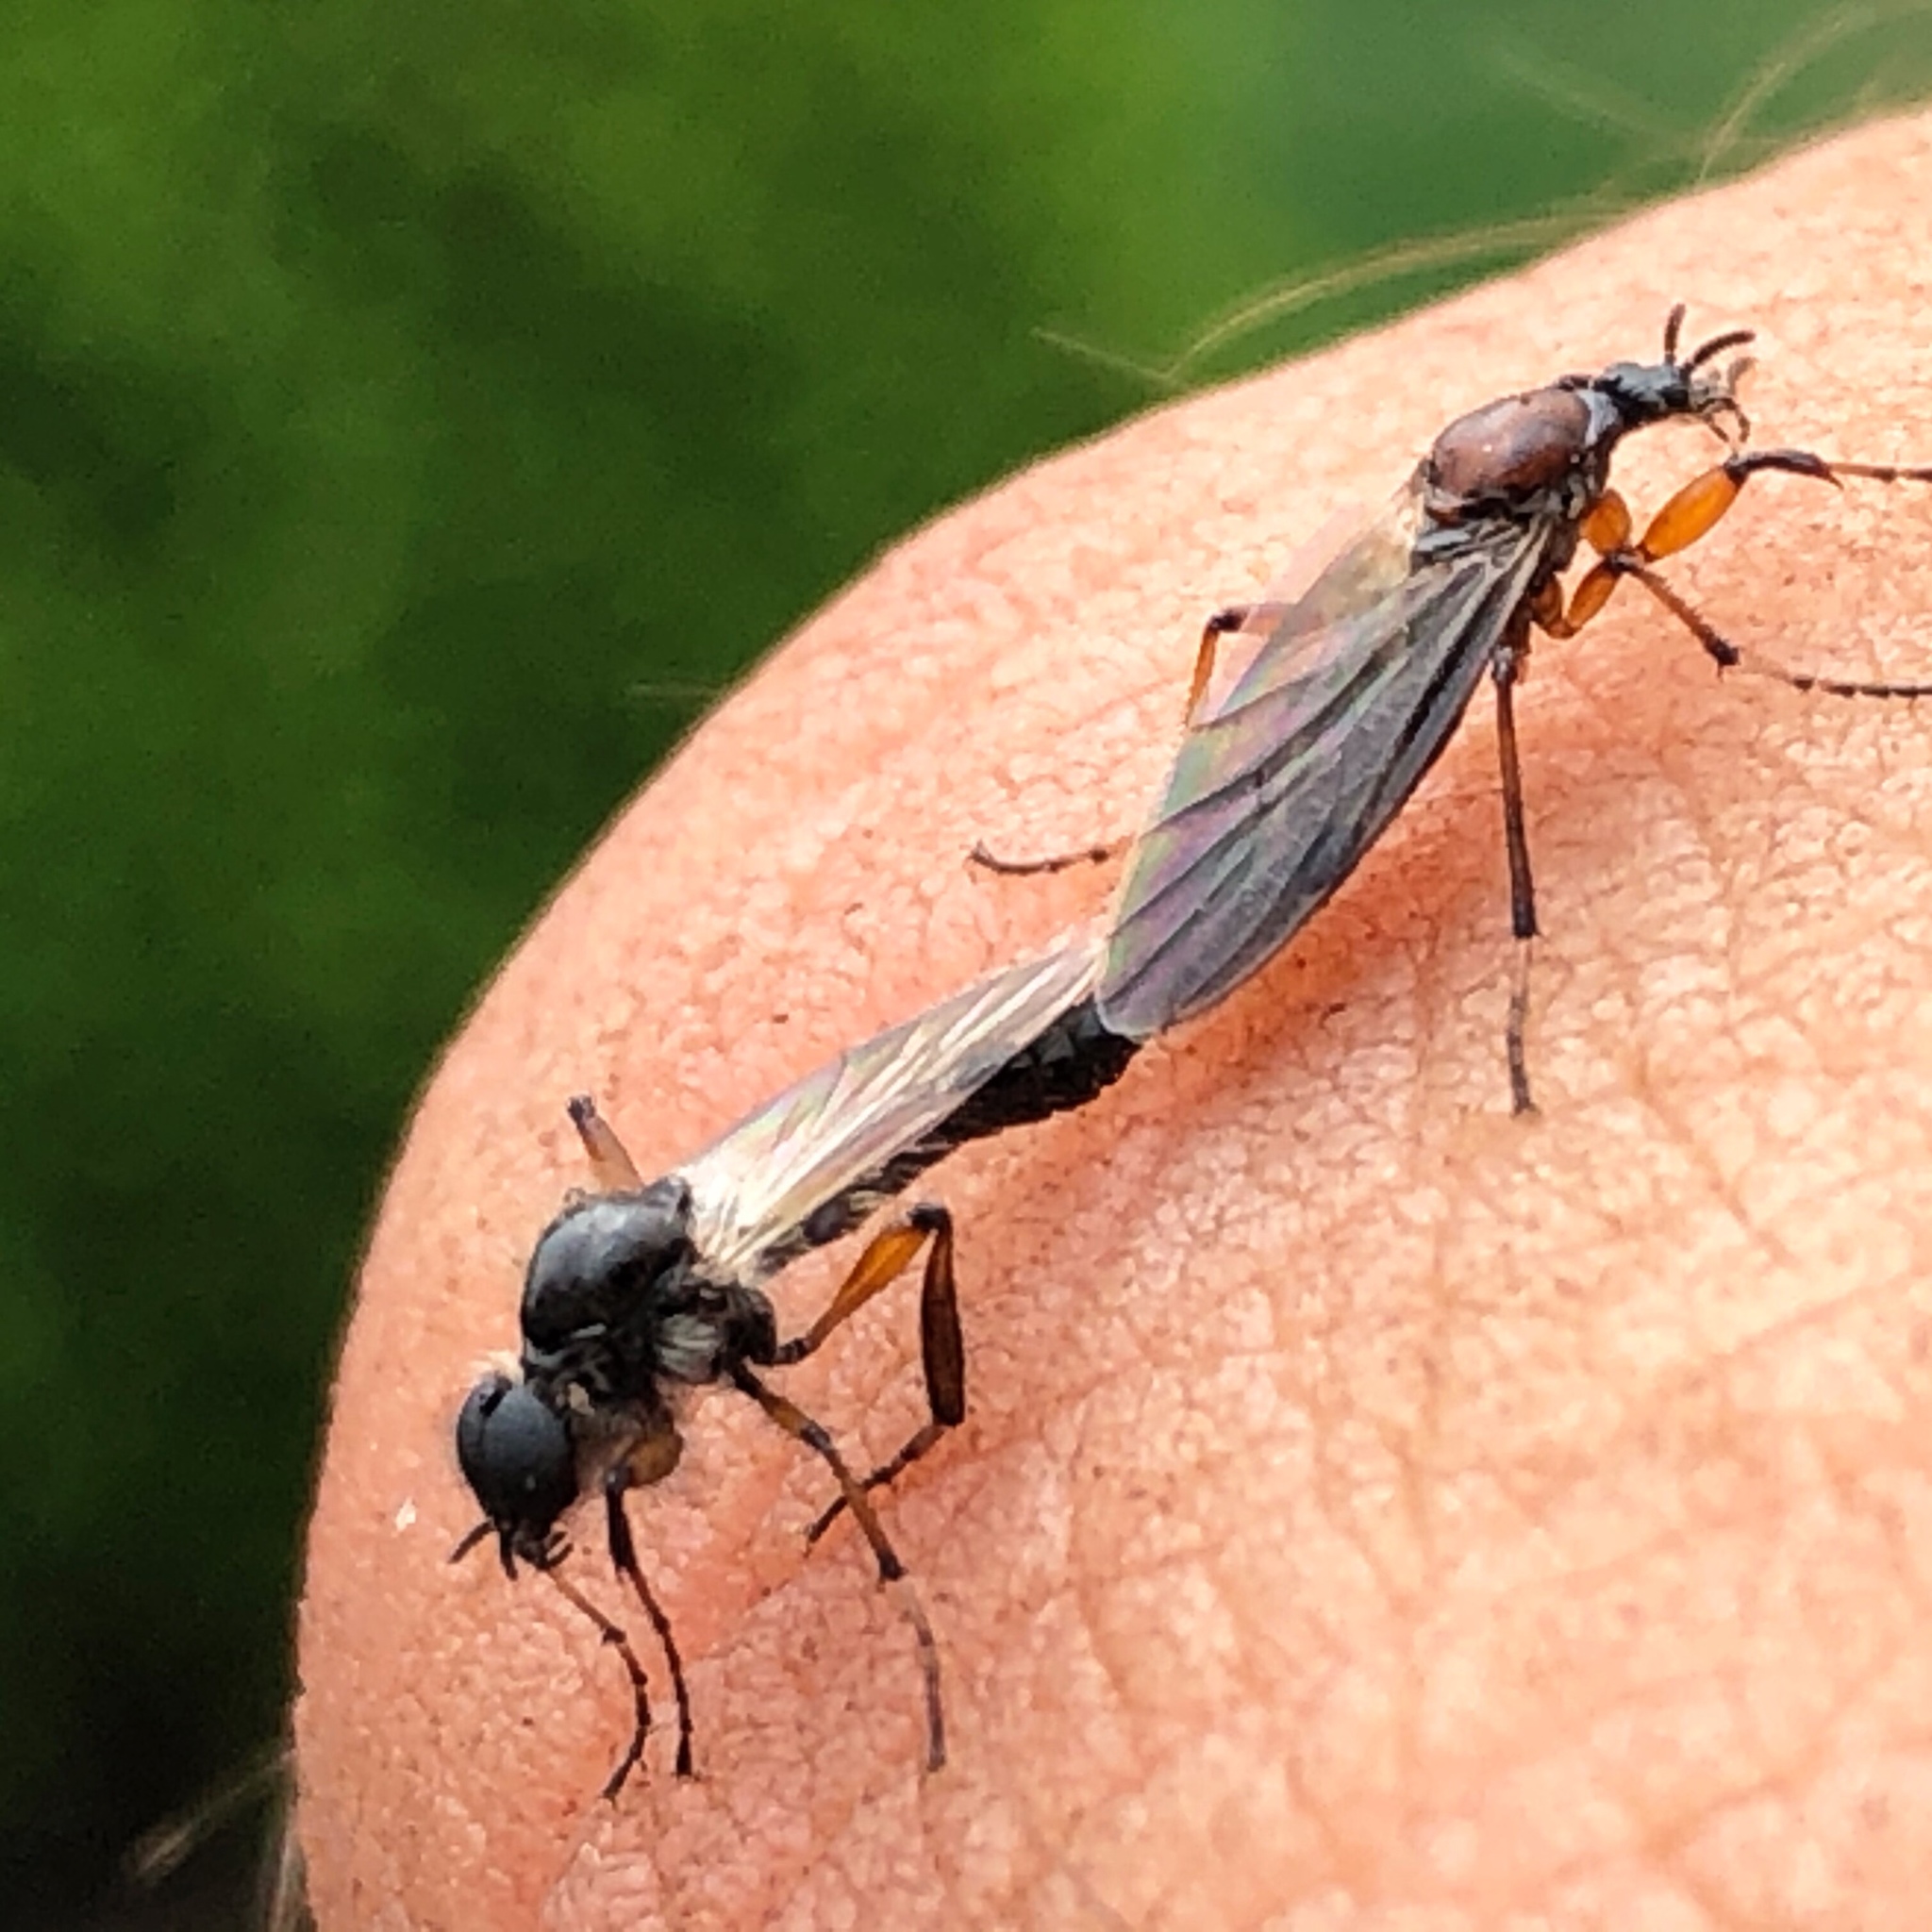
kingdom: Animalia
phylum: Arthropoda
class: Insecta
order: Diptera
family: Bibionidae
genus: Bibio
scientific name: Bibio articulatus
